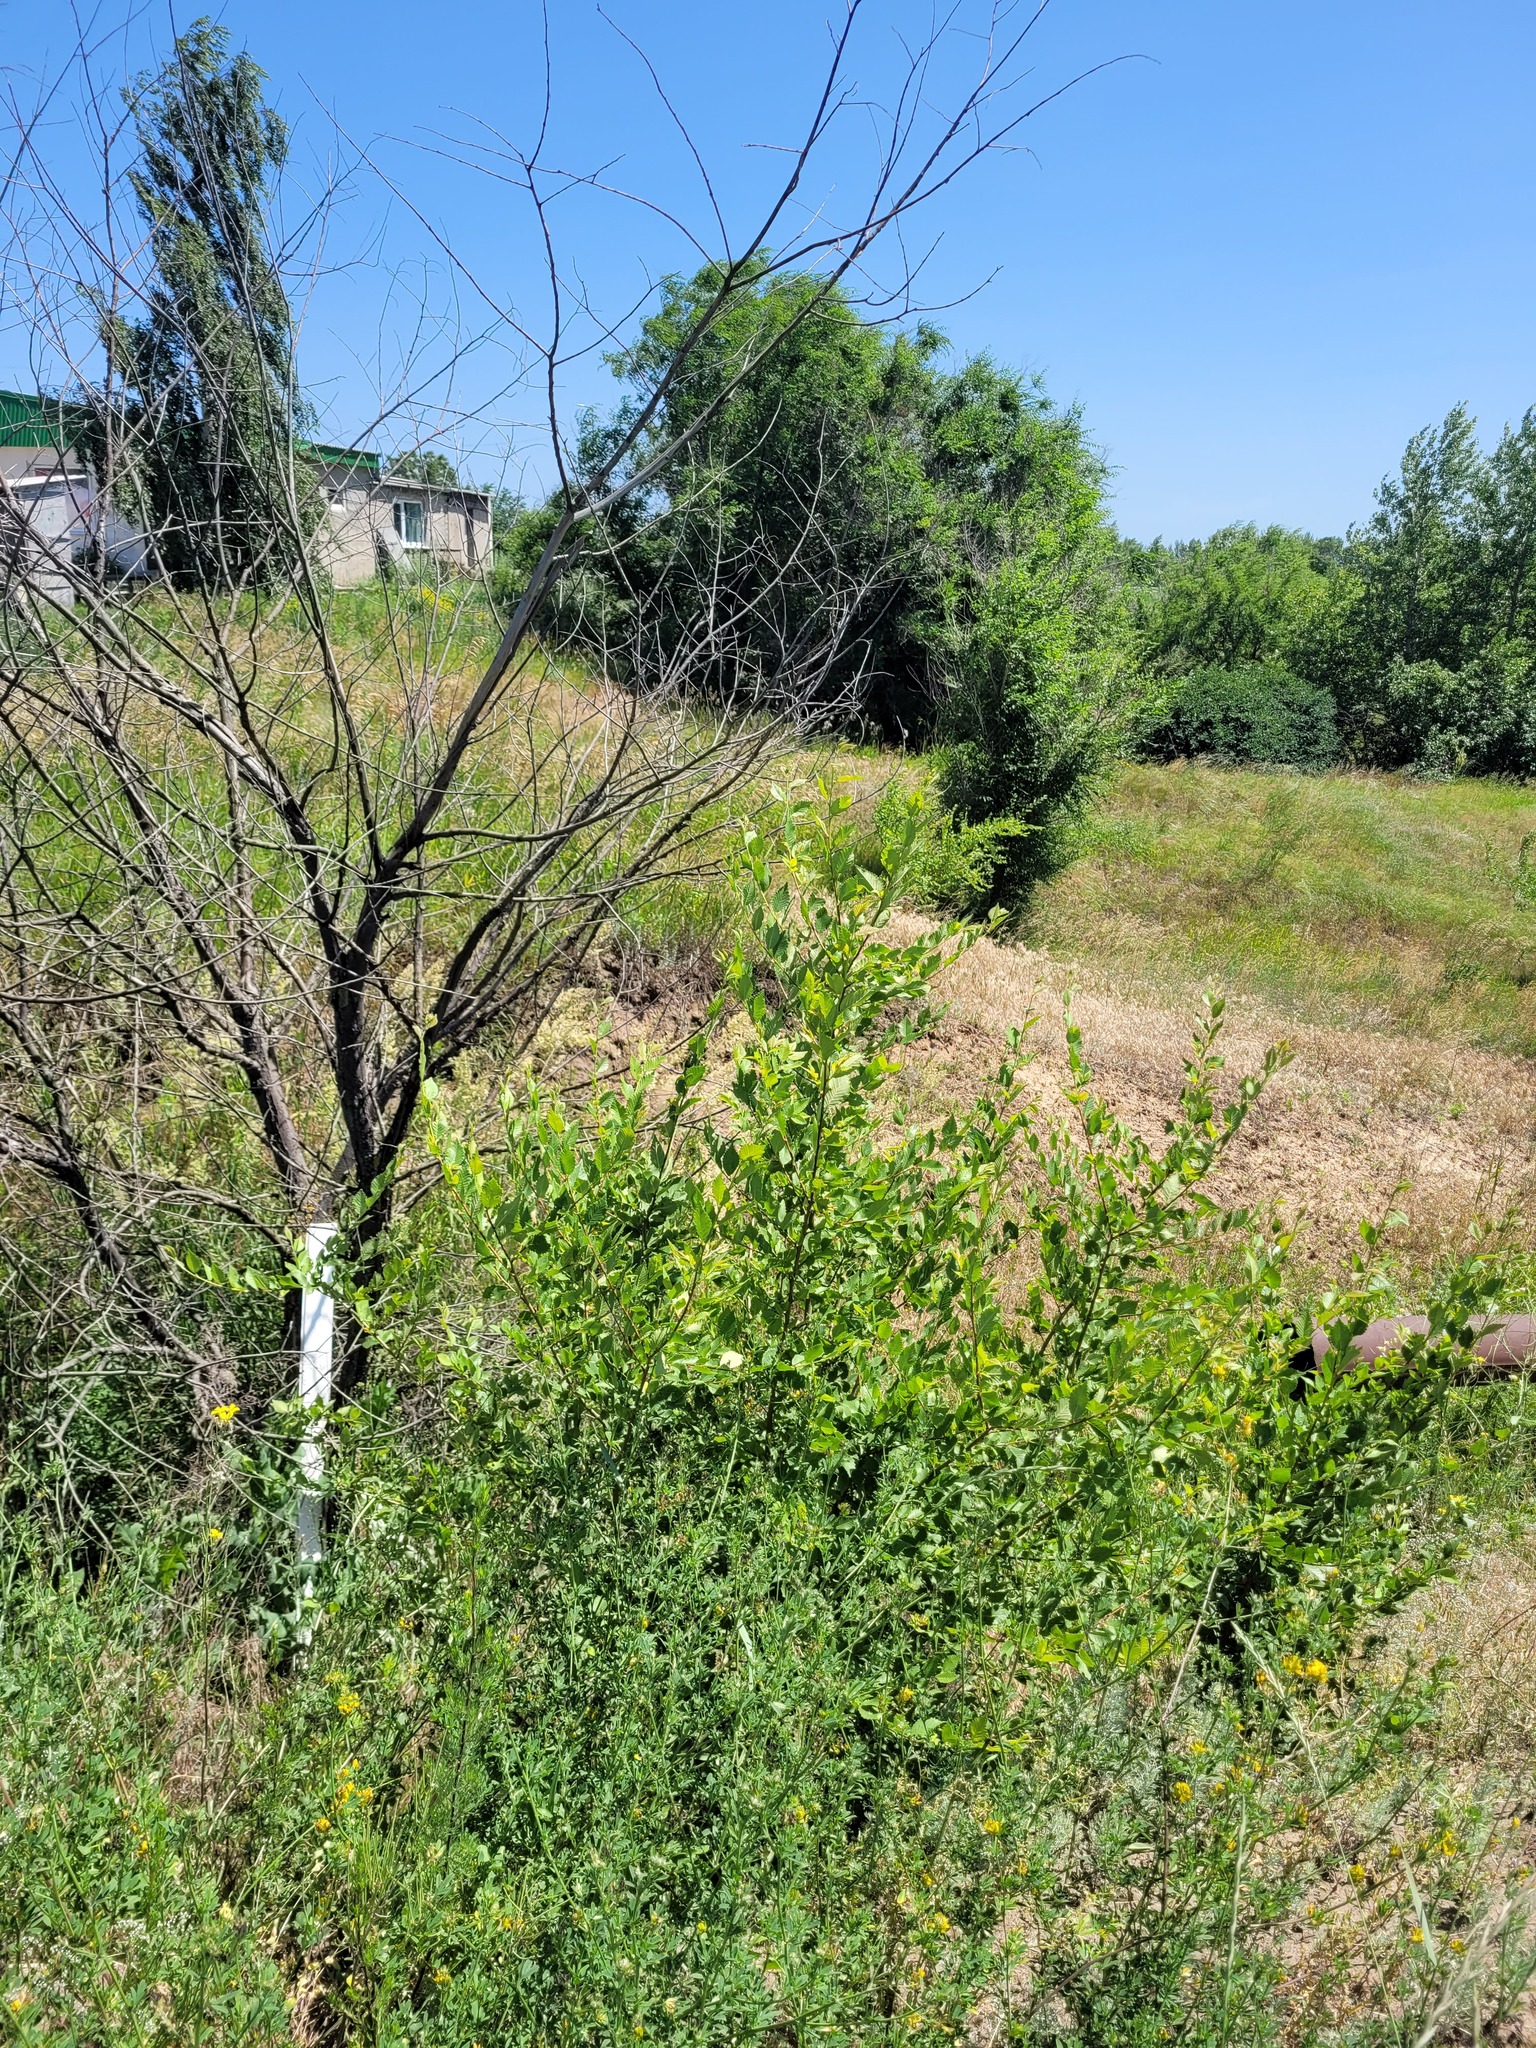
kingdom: Plantae
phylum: Tracheophyta
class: Magnoliopsida
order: Rosales
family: Ulmaceae
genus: Ulmus
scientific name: Ulmus pumila
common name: Siberian elm
